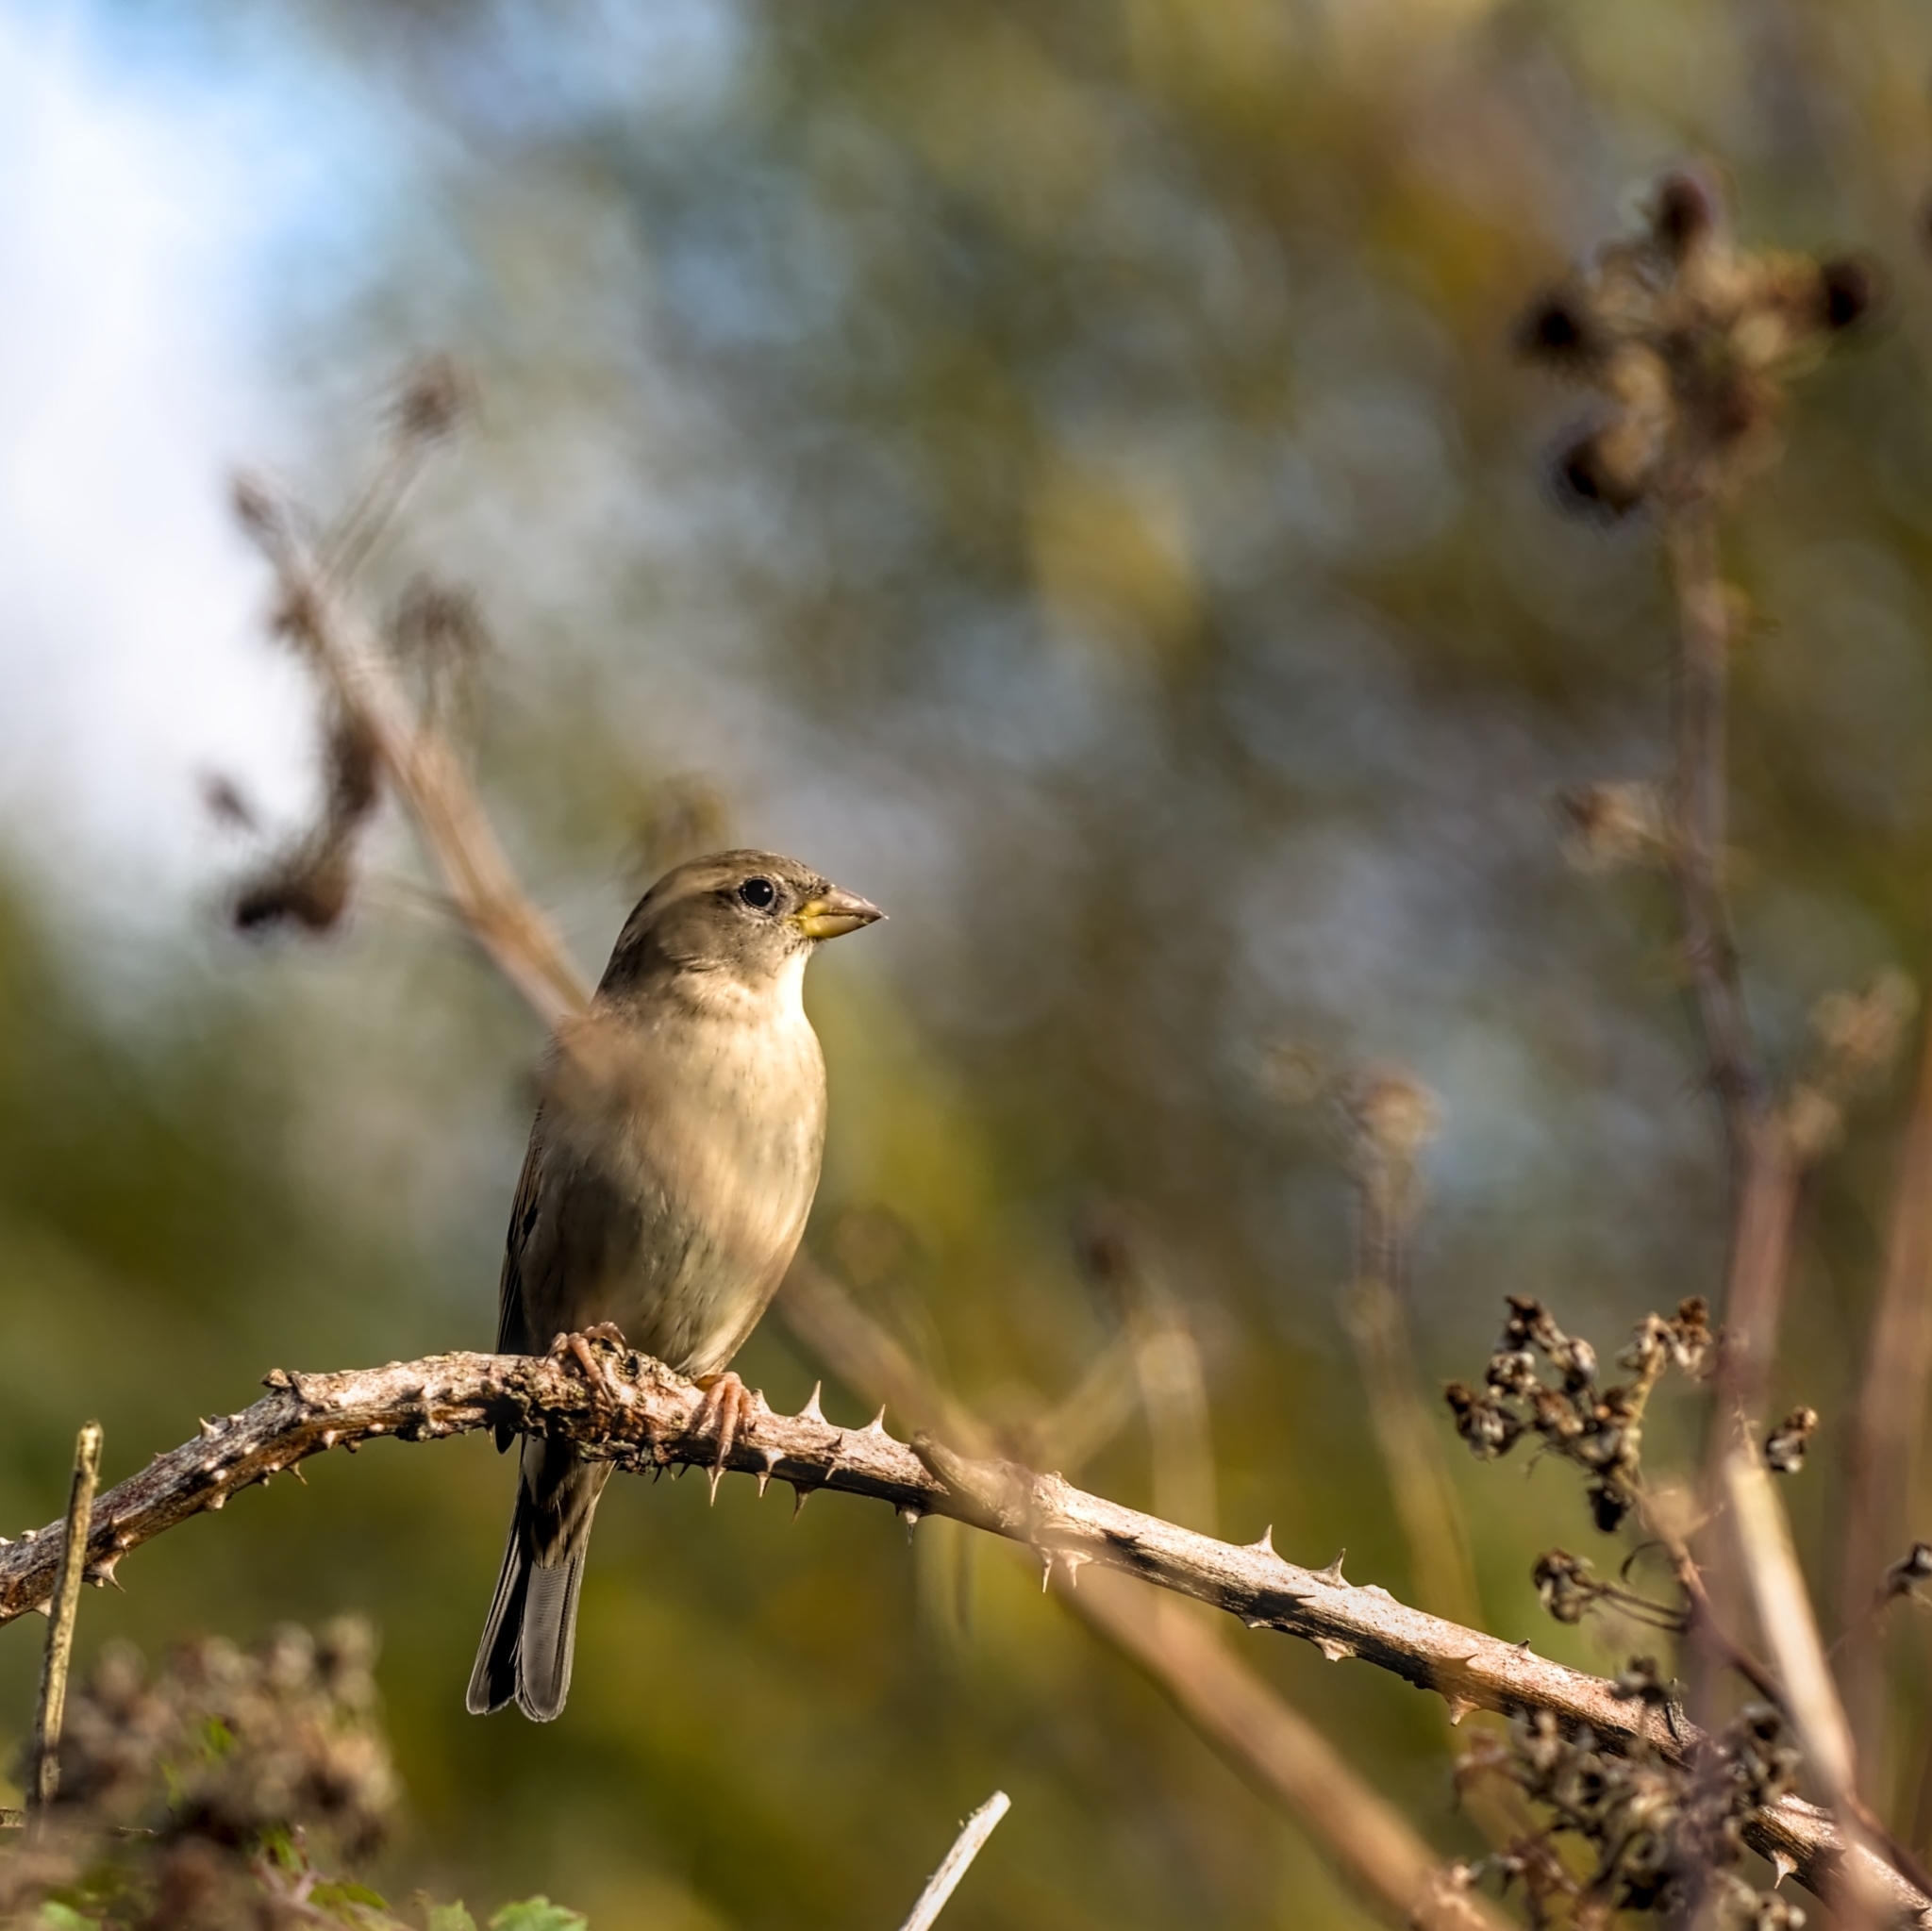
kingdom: Animalia
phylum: Chordata
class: Aves
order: Passeriformes
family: Passeridae
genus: Passer
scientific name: Passer domesticus
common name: House sparrow
